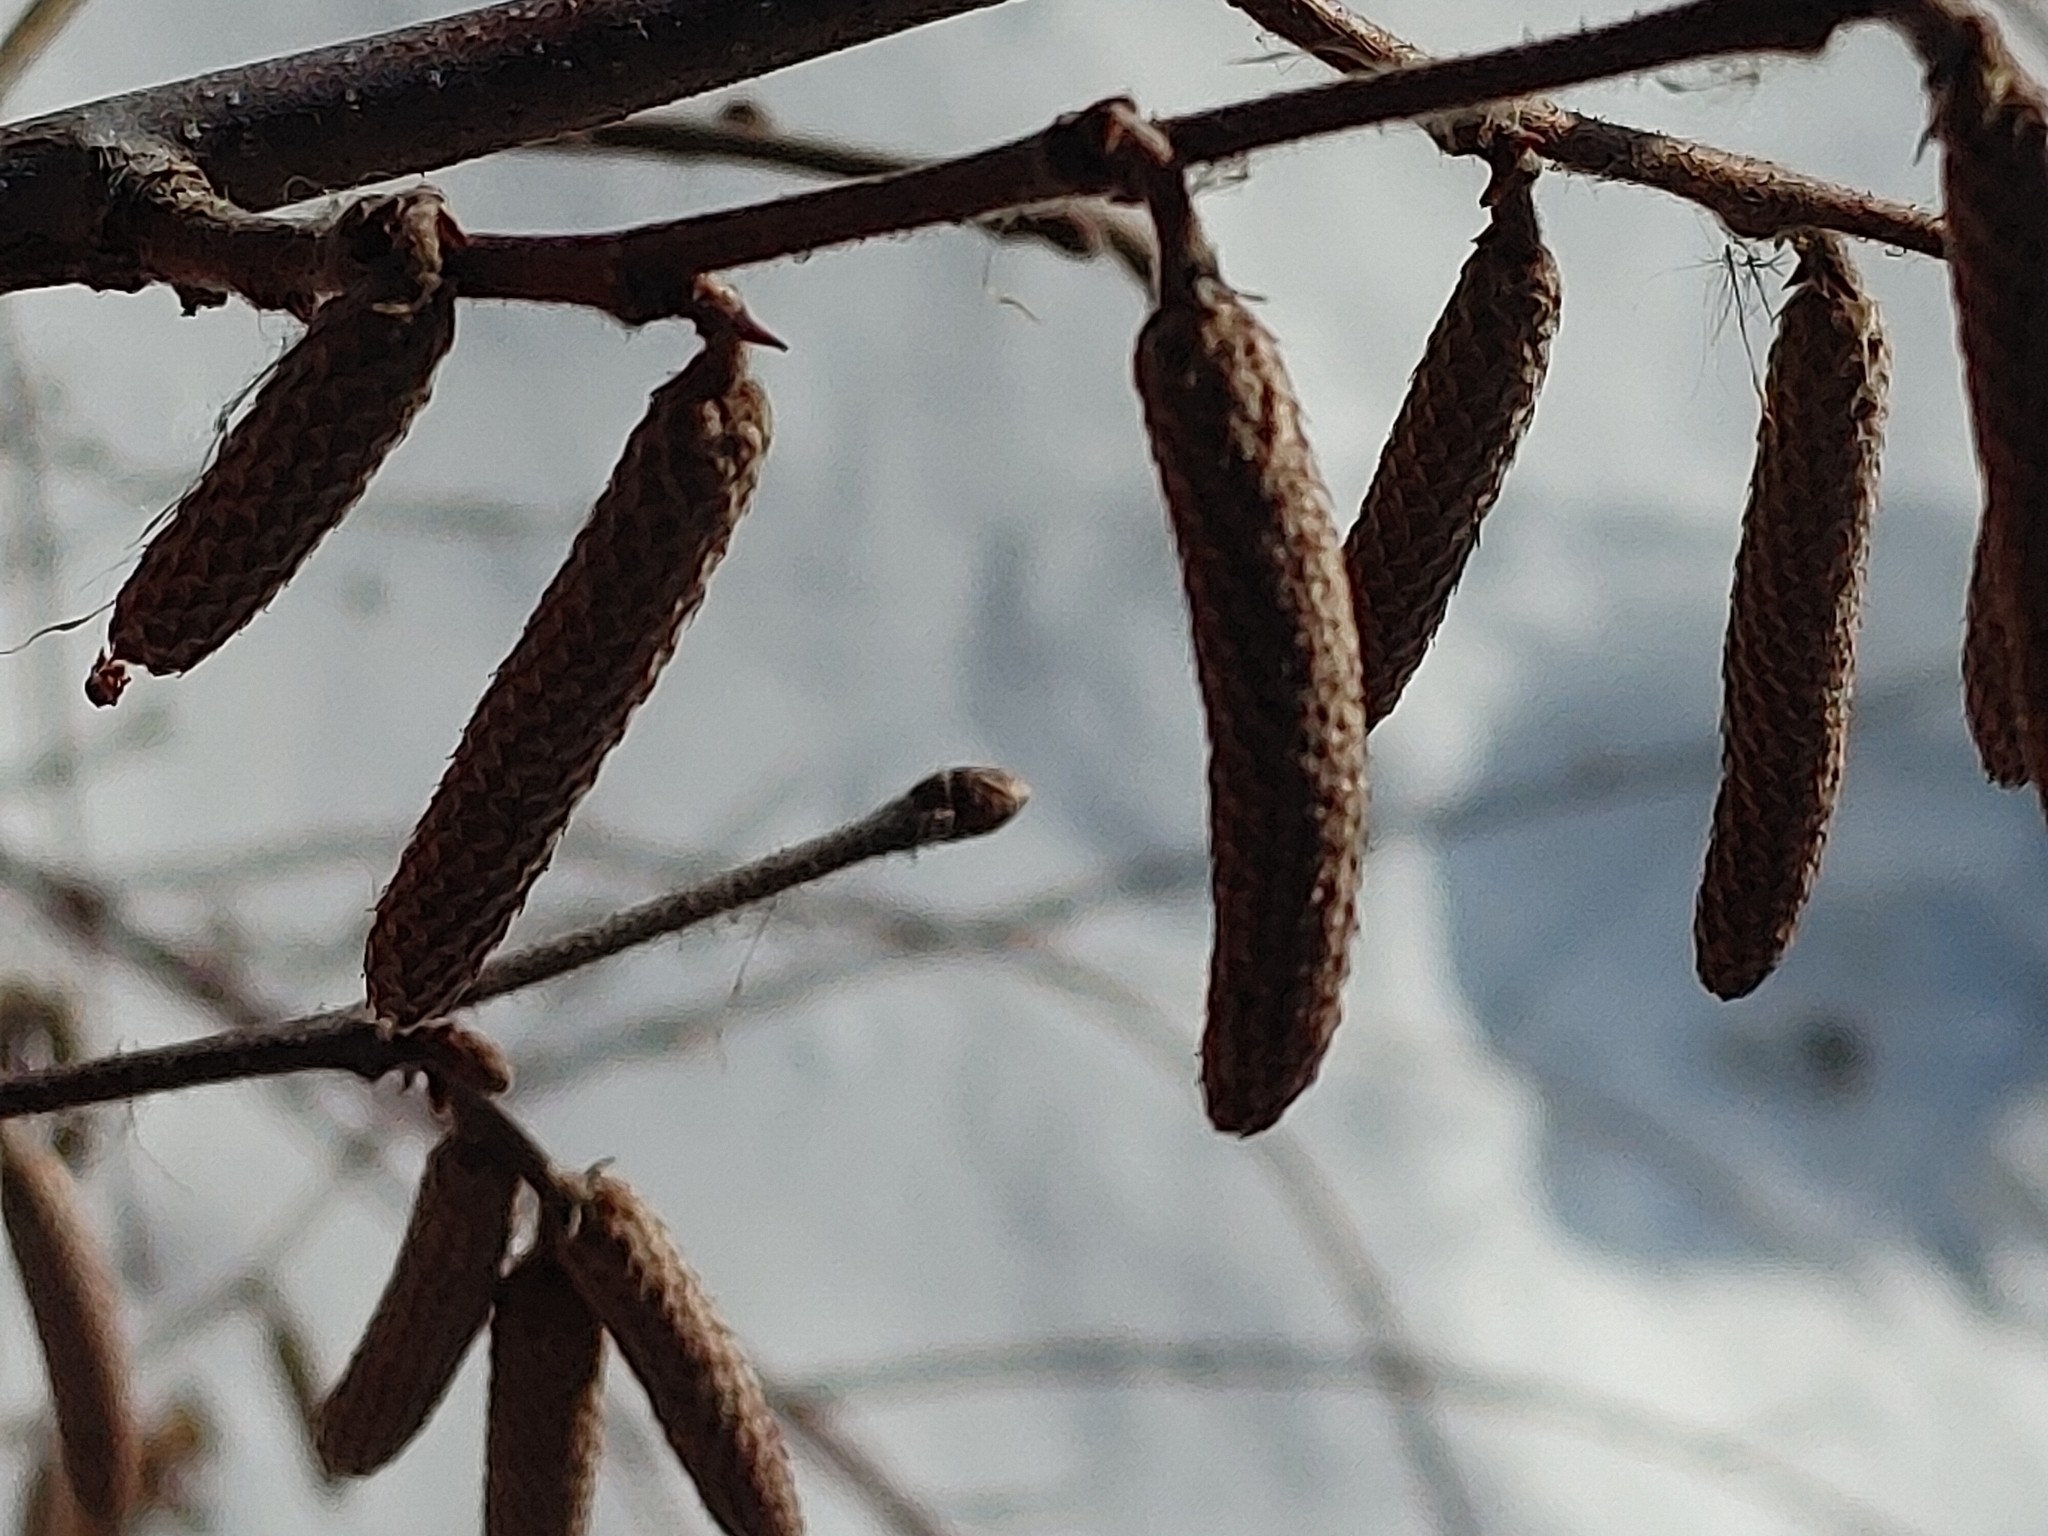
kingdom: Plantae
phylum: Tracheophyta
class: Magnoliopsida
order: Fagales
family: Betulaceae
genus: Corylus
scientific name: Corylus americana
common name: American hazel
